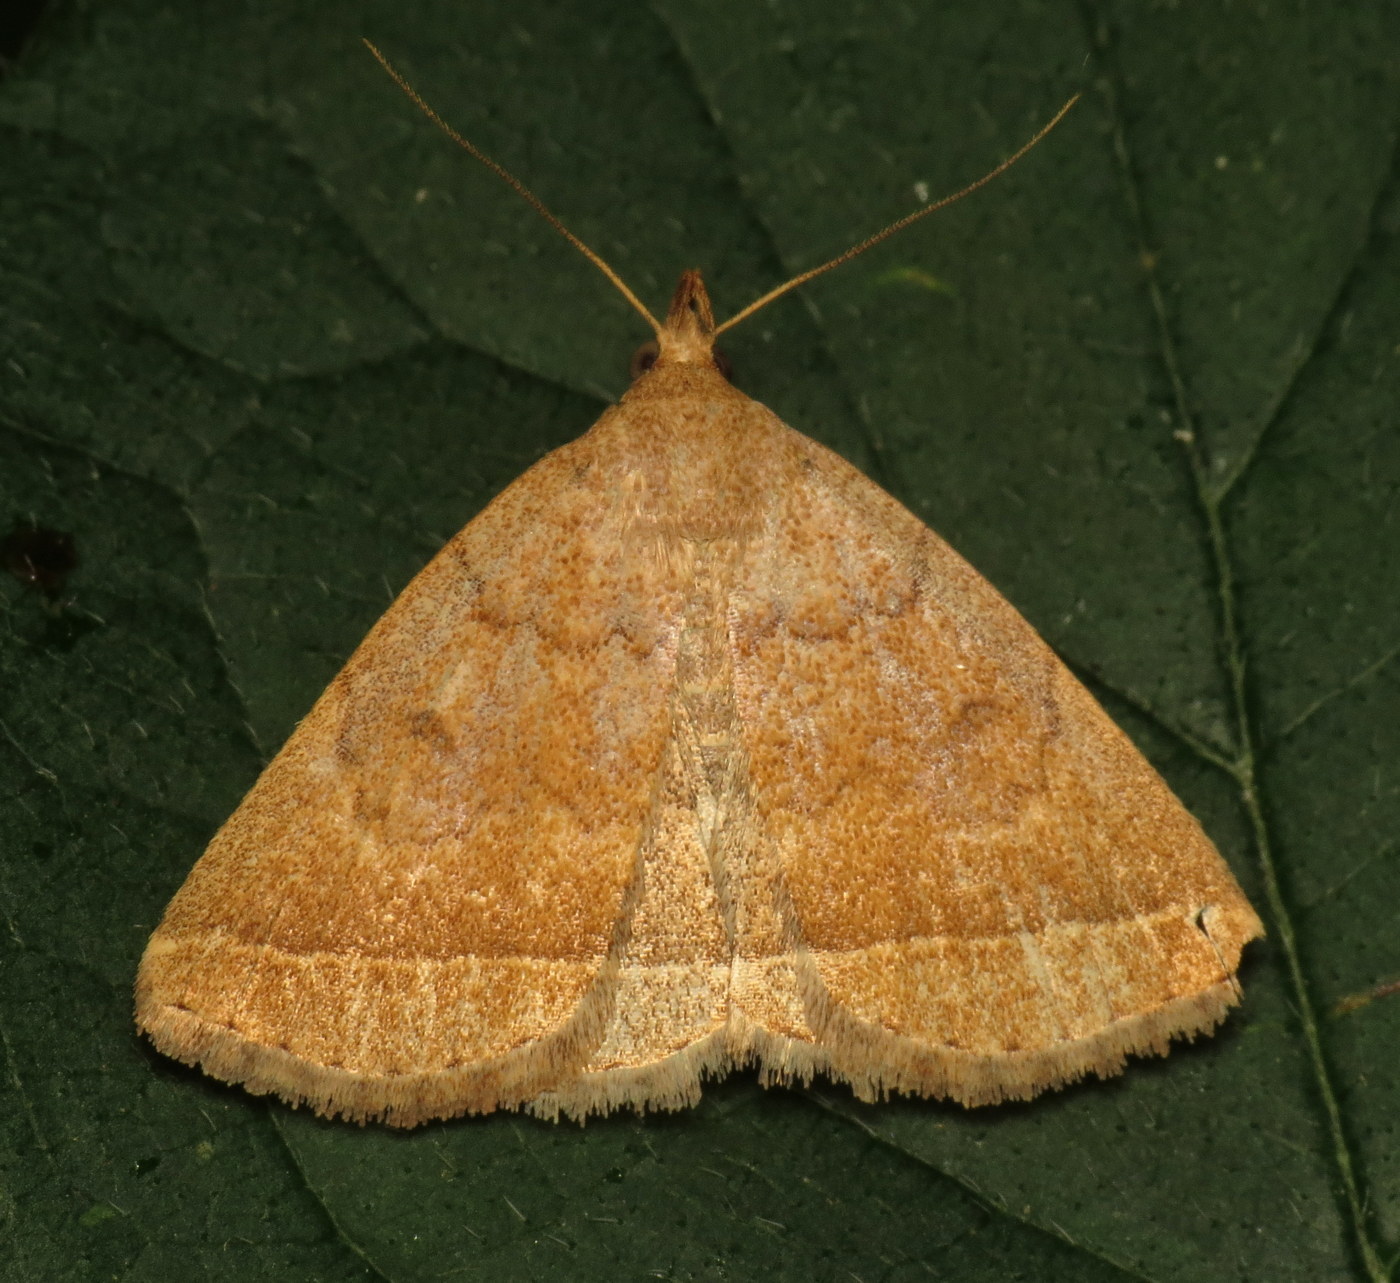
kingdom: Animalia
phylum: Arthropoda
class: Insecta
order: Lepidoptera
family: Erebidae
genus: Zanclognatha
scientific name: Zanclognatha jacchusalis
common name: Yellowish zanclognatha
